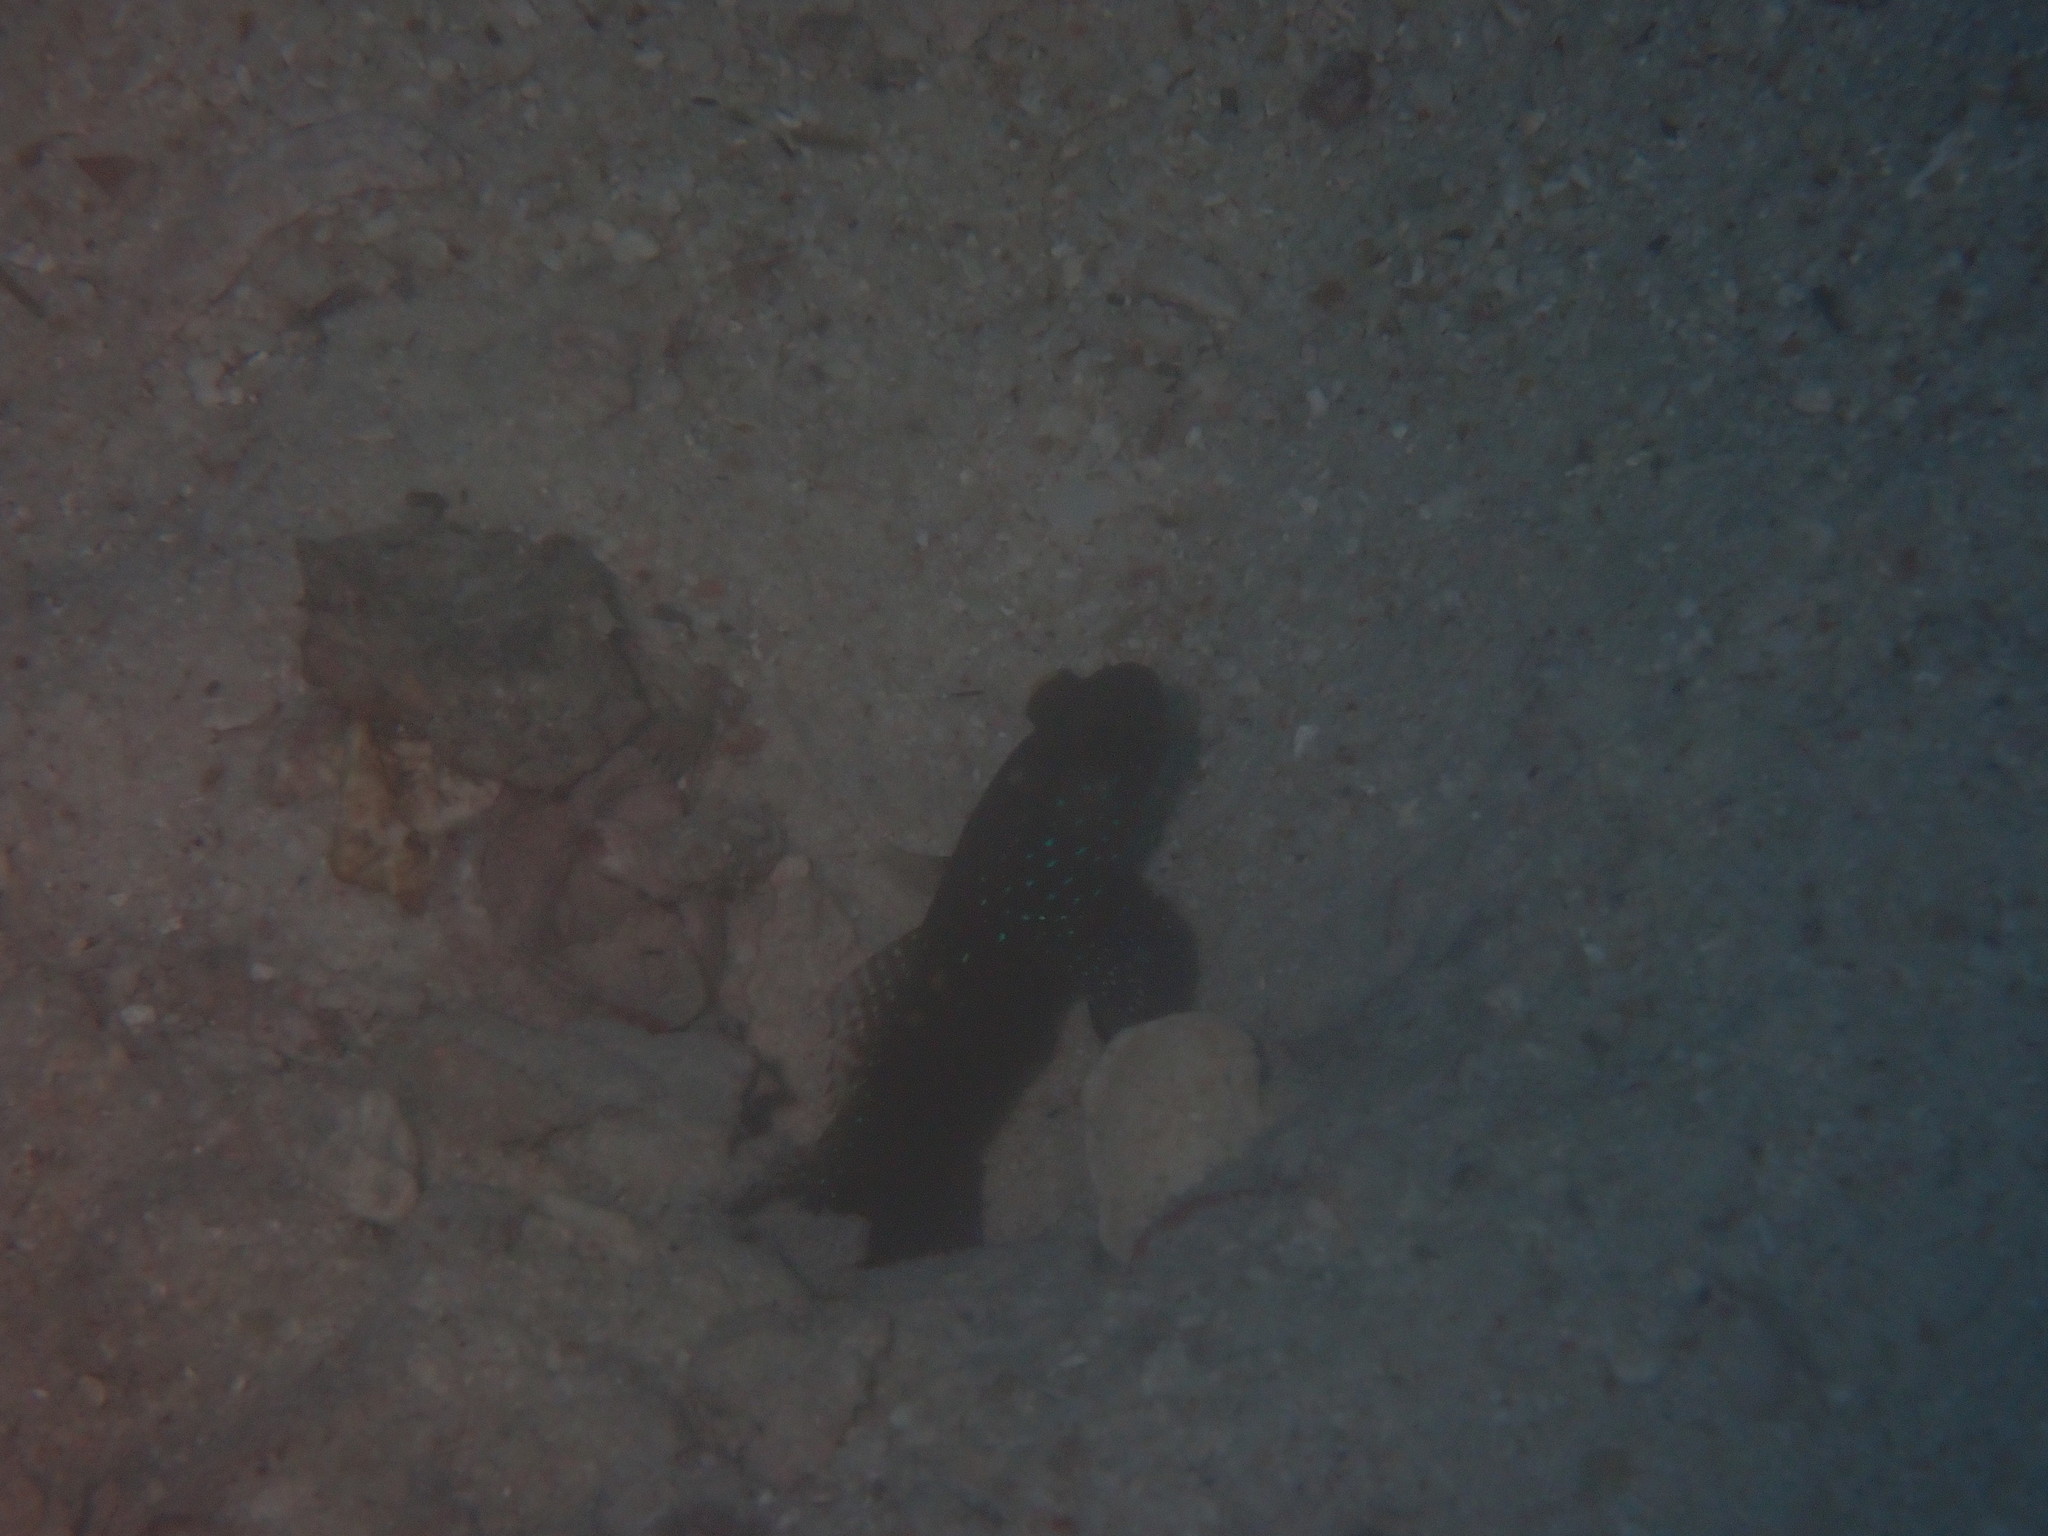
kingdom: Animalia
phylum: Chordata
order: Perciformes
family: Gobiidae
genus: Cryptocentrus
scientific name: Cryptocentrus cinctus
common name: Yellow shrimp goby
